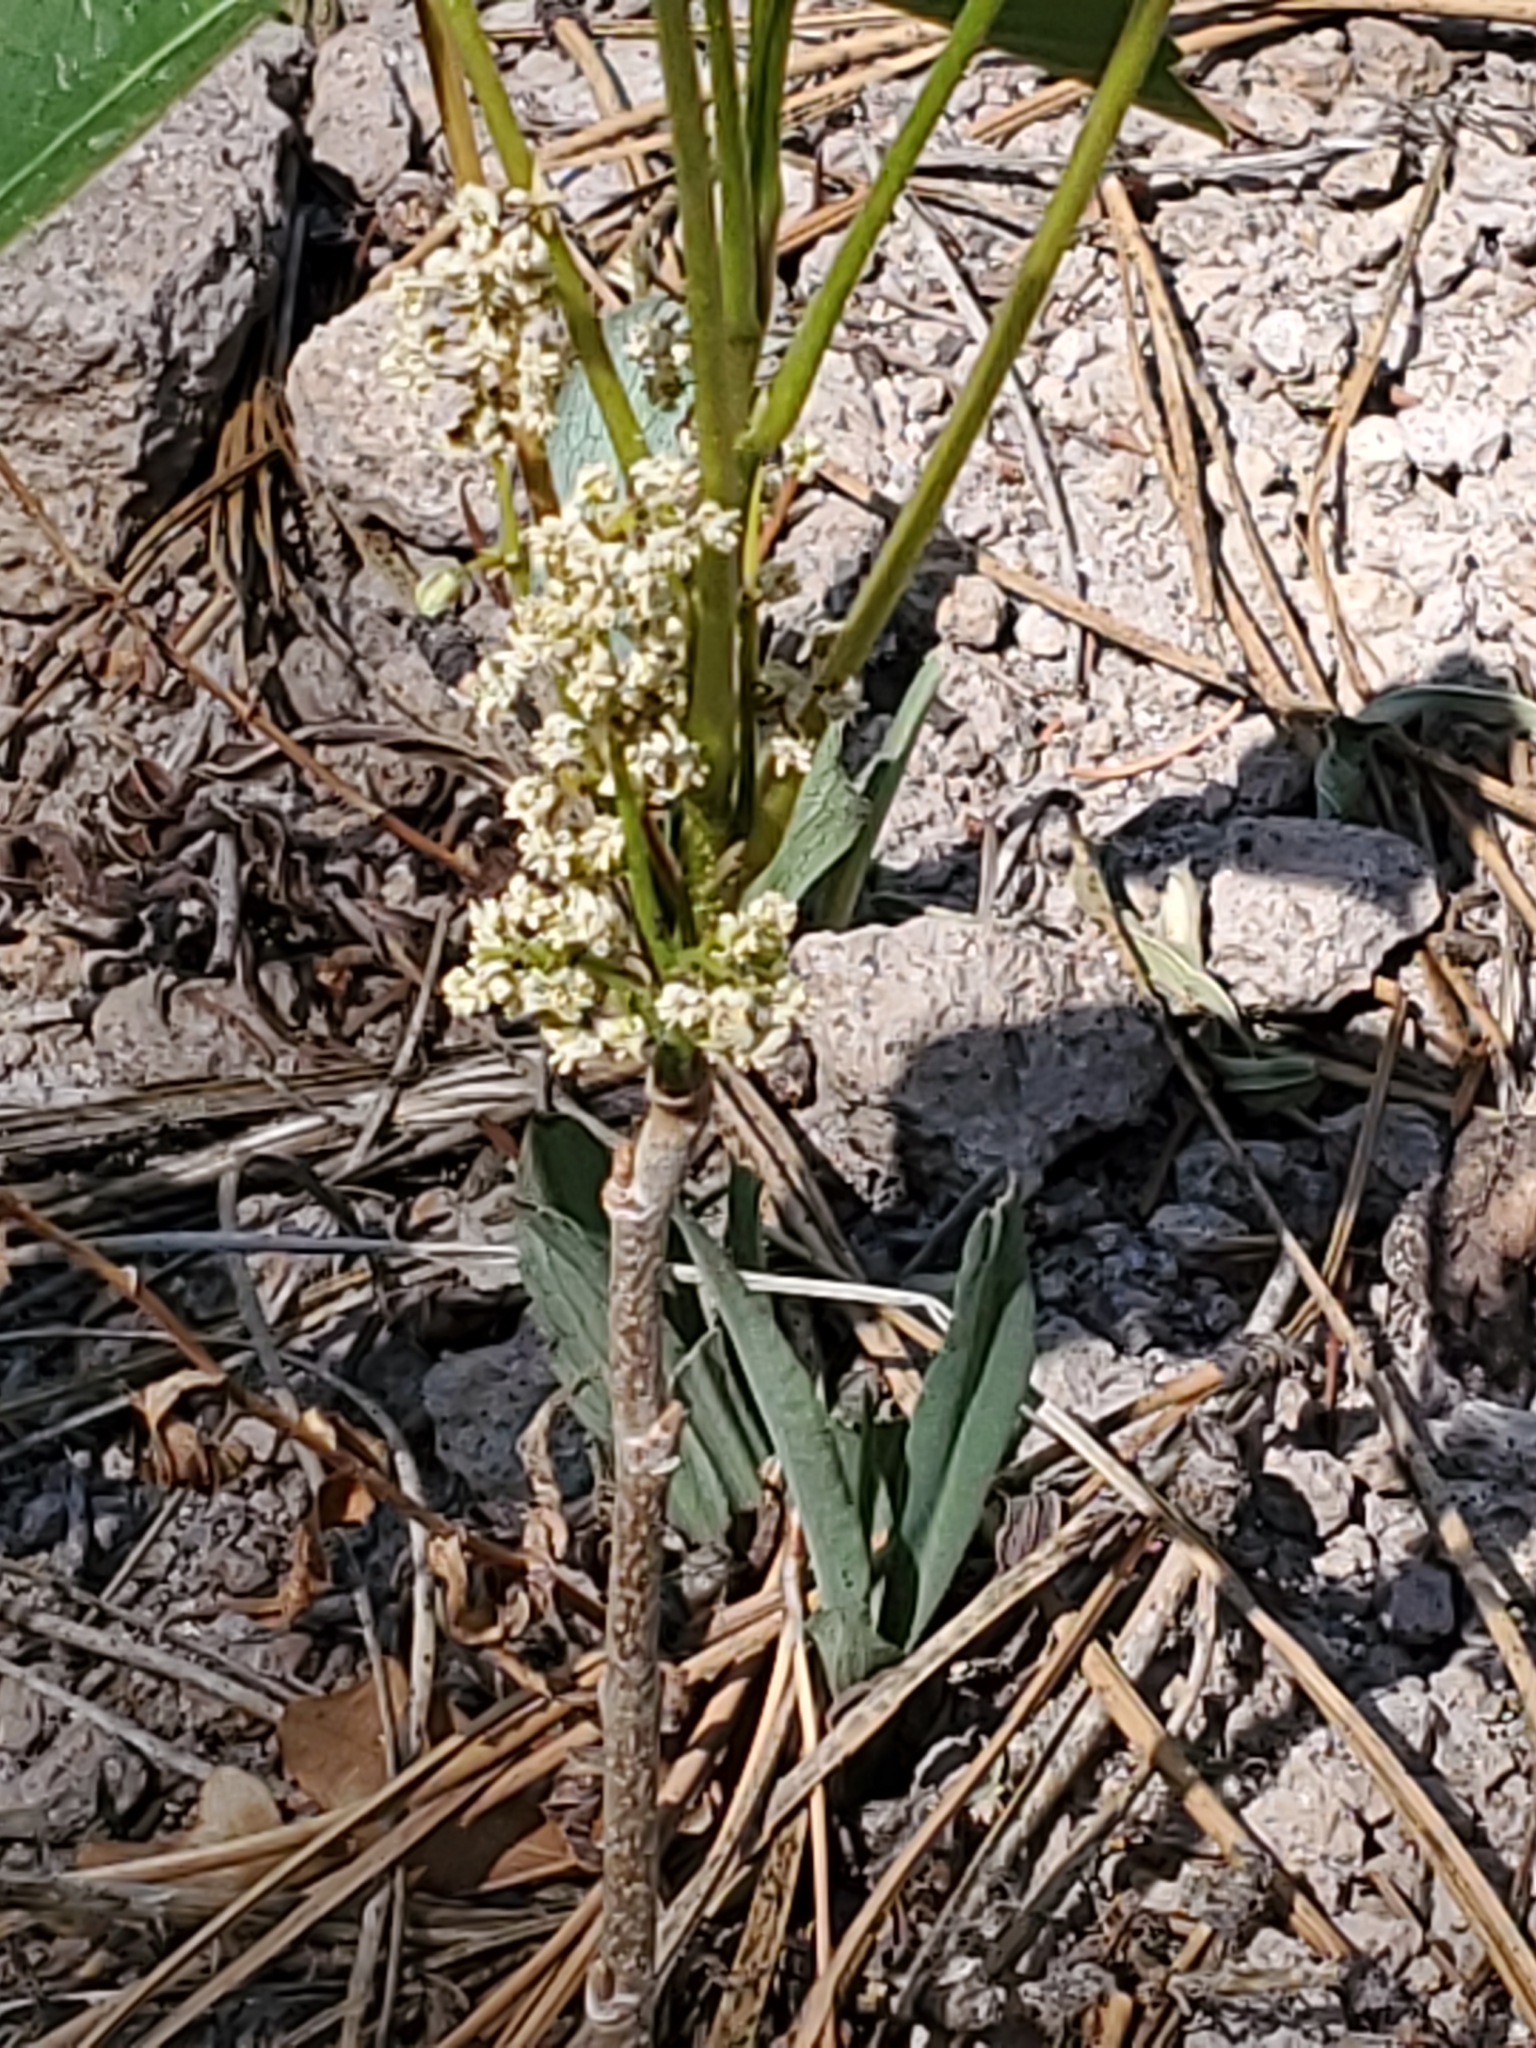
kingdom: Plantae
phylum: Tracheophyta
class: Magnoliopsida
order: Sapindales
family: Anacardiaceae
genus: Toxicodendron
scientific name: Toxicodendron rydbergii
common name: Rydberg's poison-ivy
